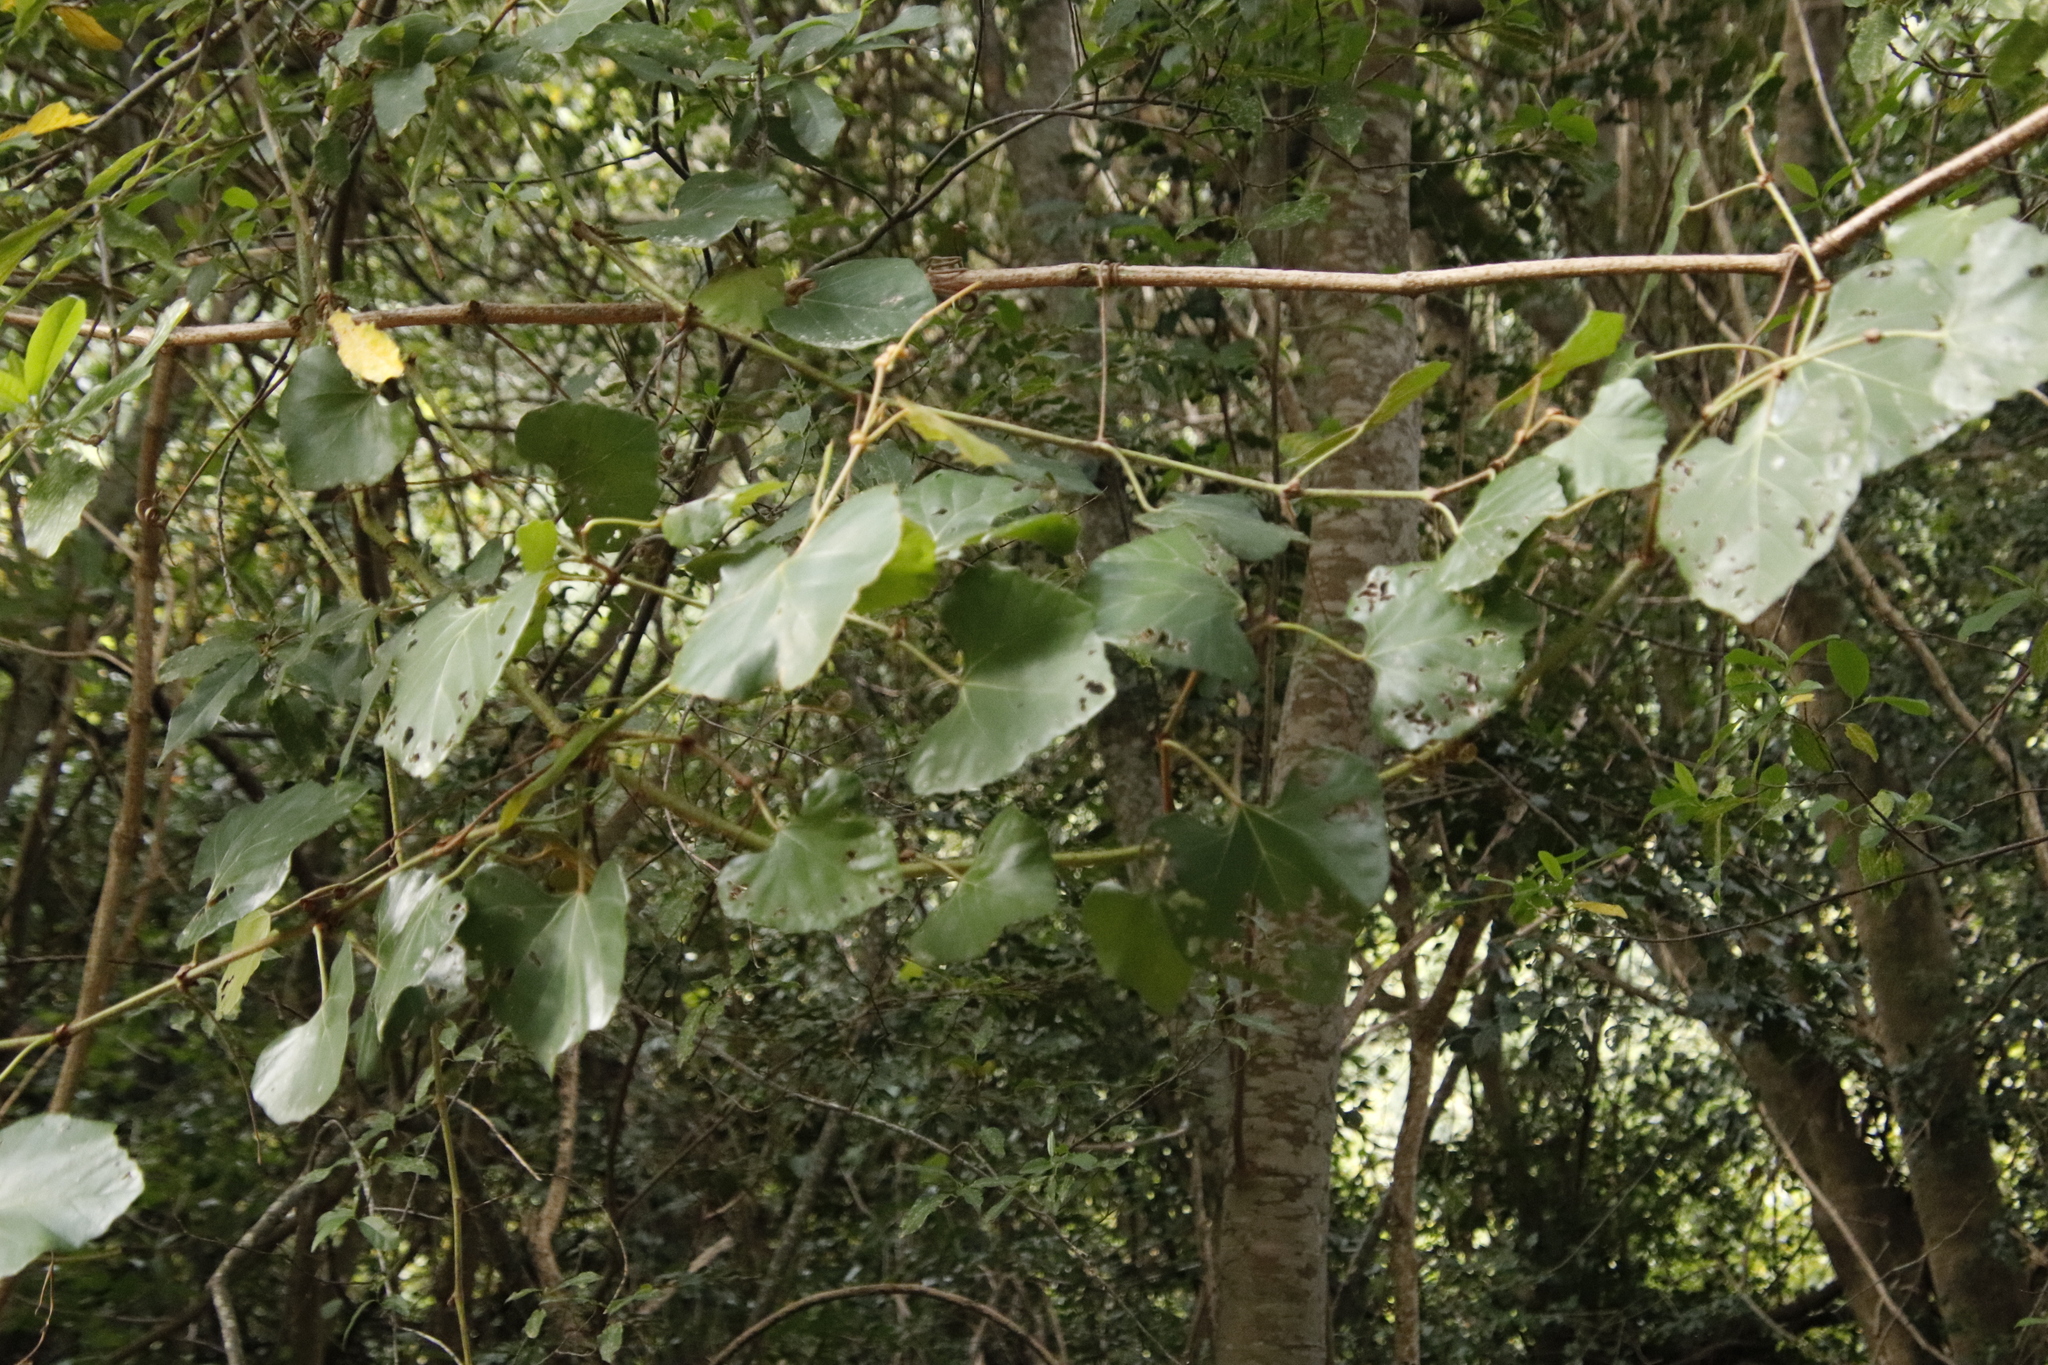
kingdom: Plantae
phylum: Tracheophyta
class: Magnoliopsida
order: Vitales
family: Vitaceae
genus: Rhoicissus
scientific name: Rhoicissus tomentosa
